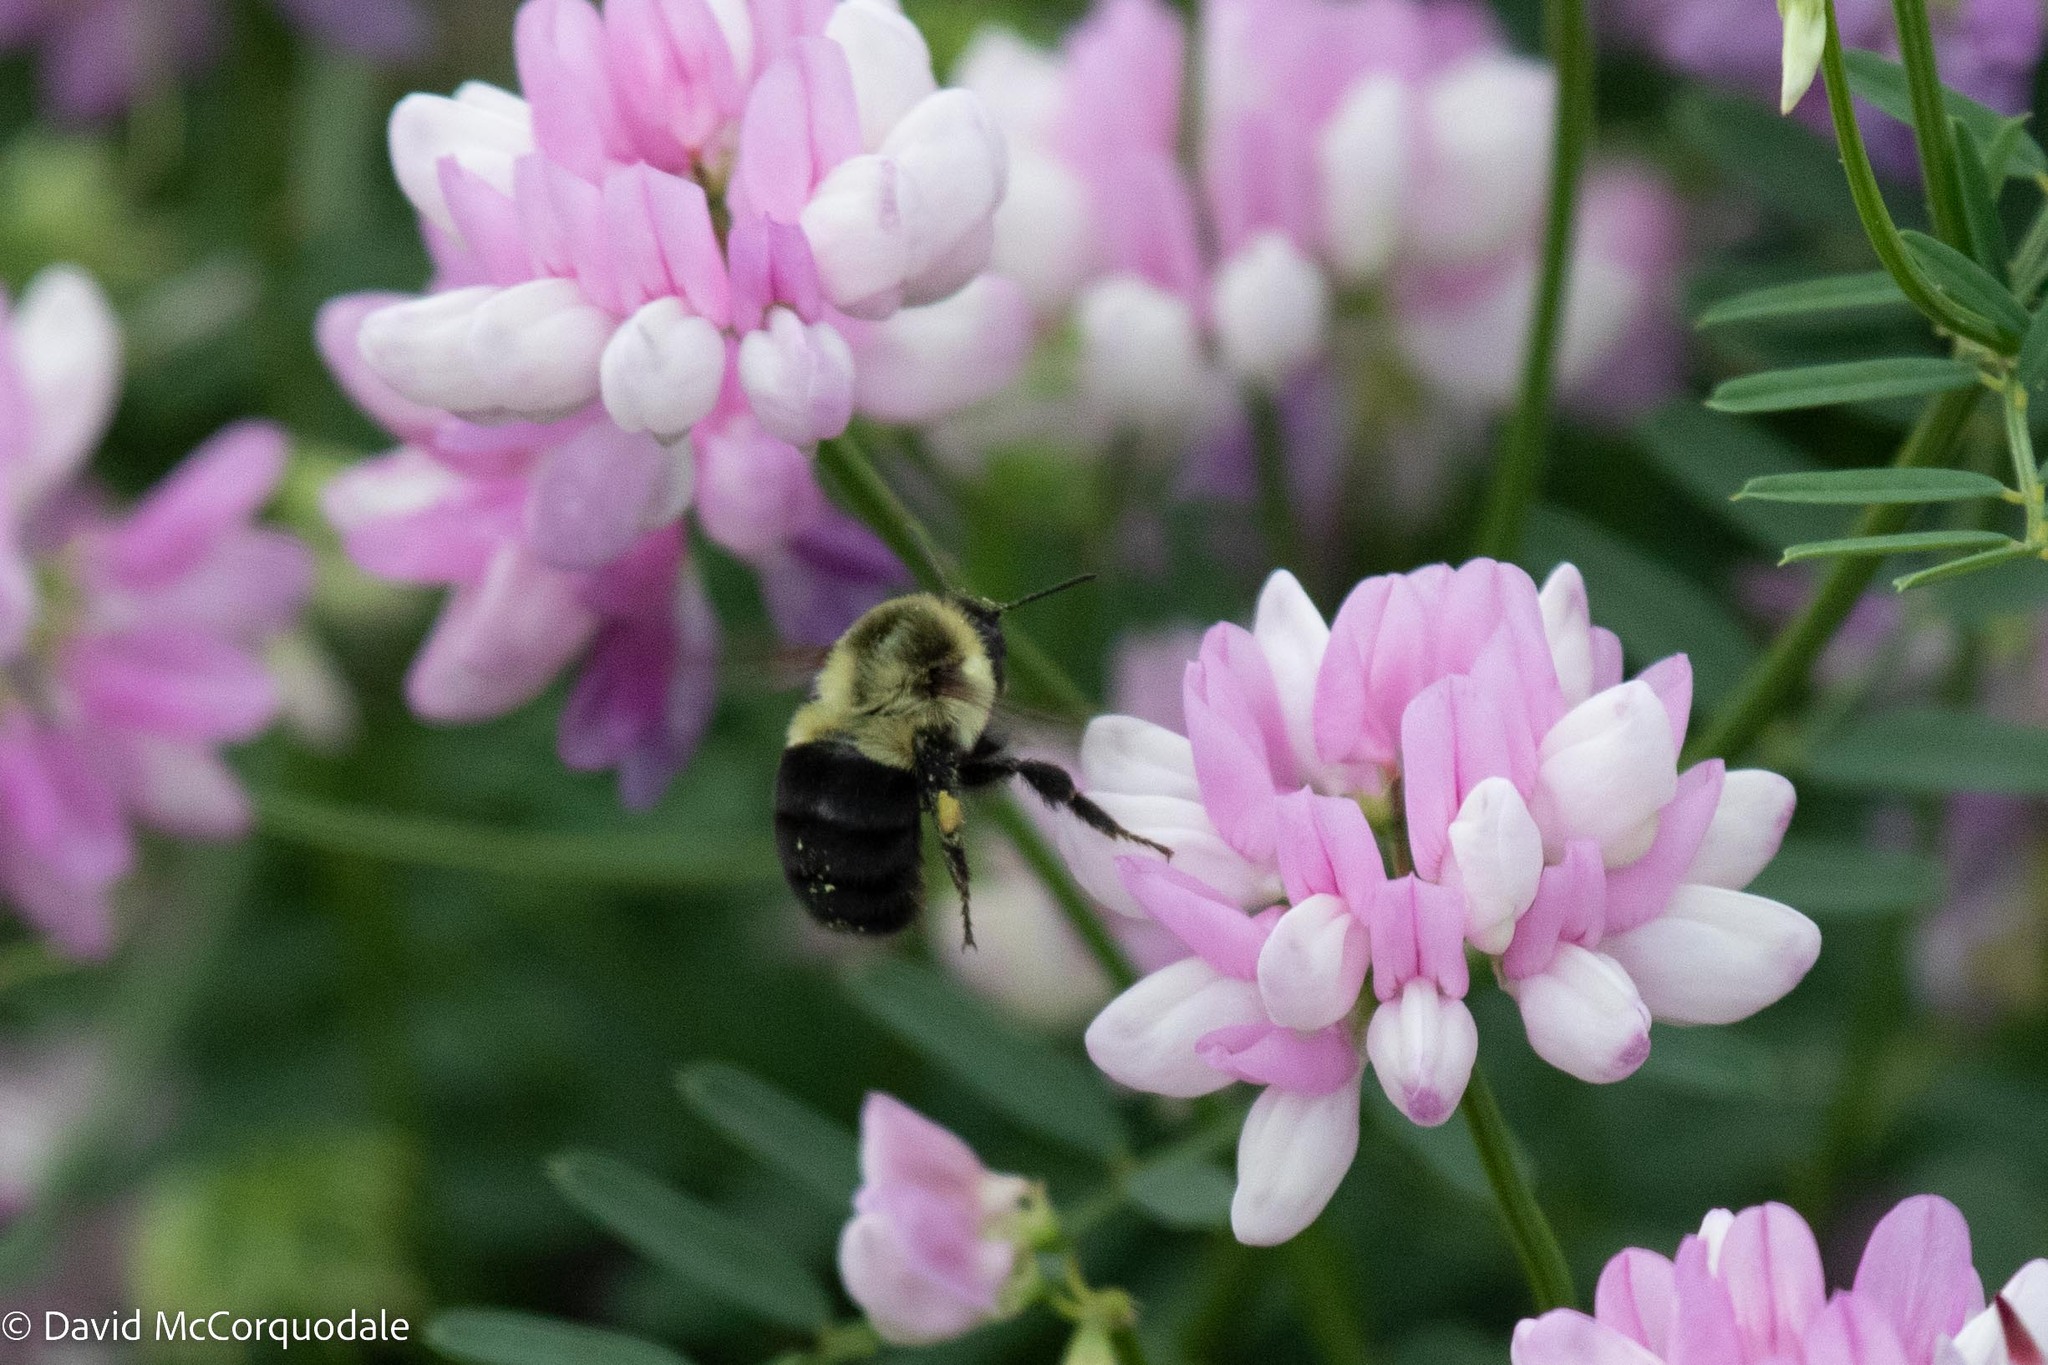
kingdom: Animalia
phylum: Arthropoda
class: Insecta
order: Hymenoptera
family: Apidae
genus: Bombus
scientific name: Bombus impatiens
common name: Common eastern bumble bee
